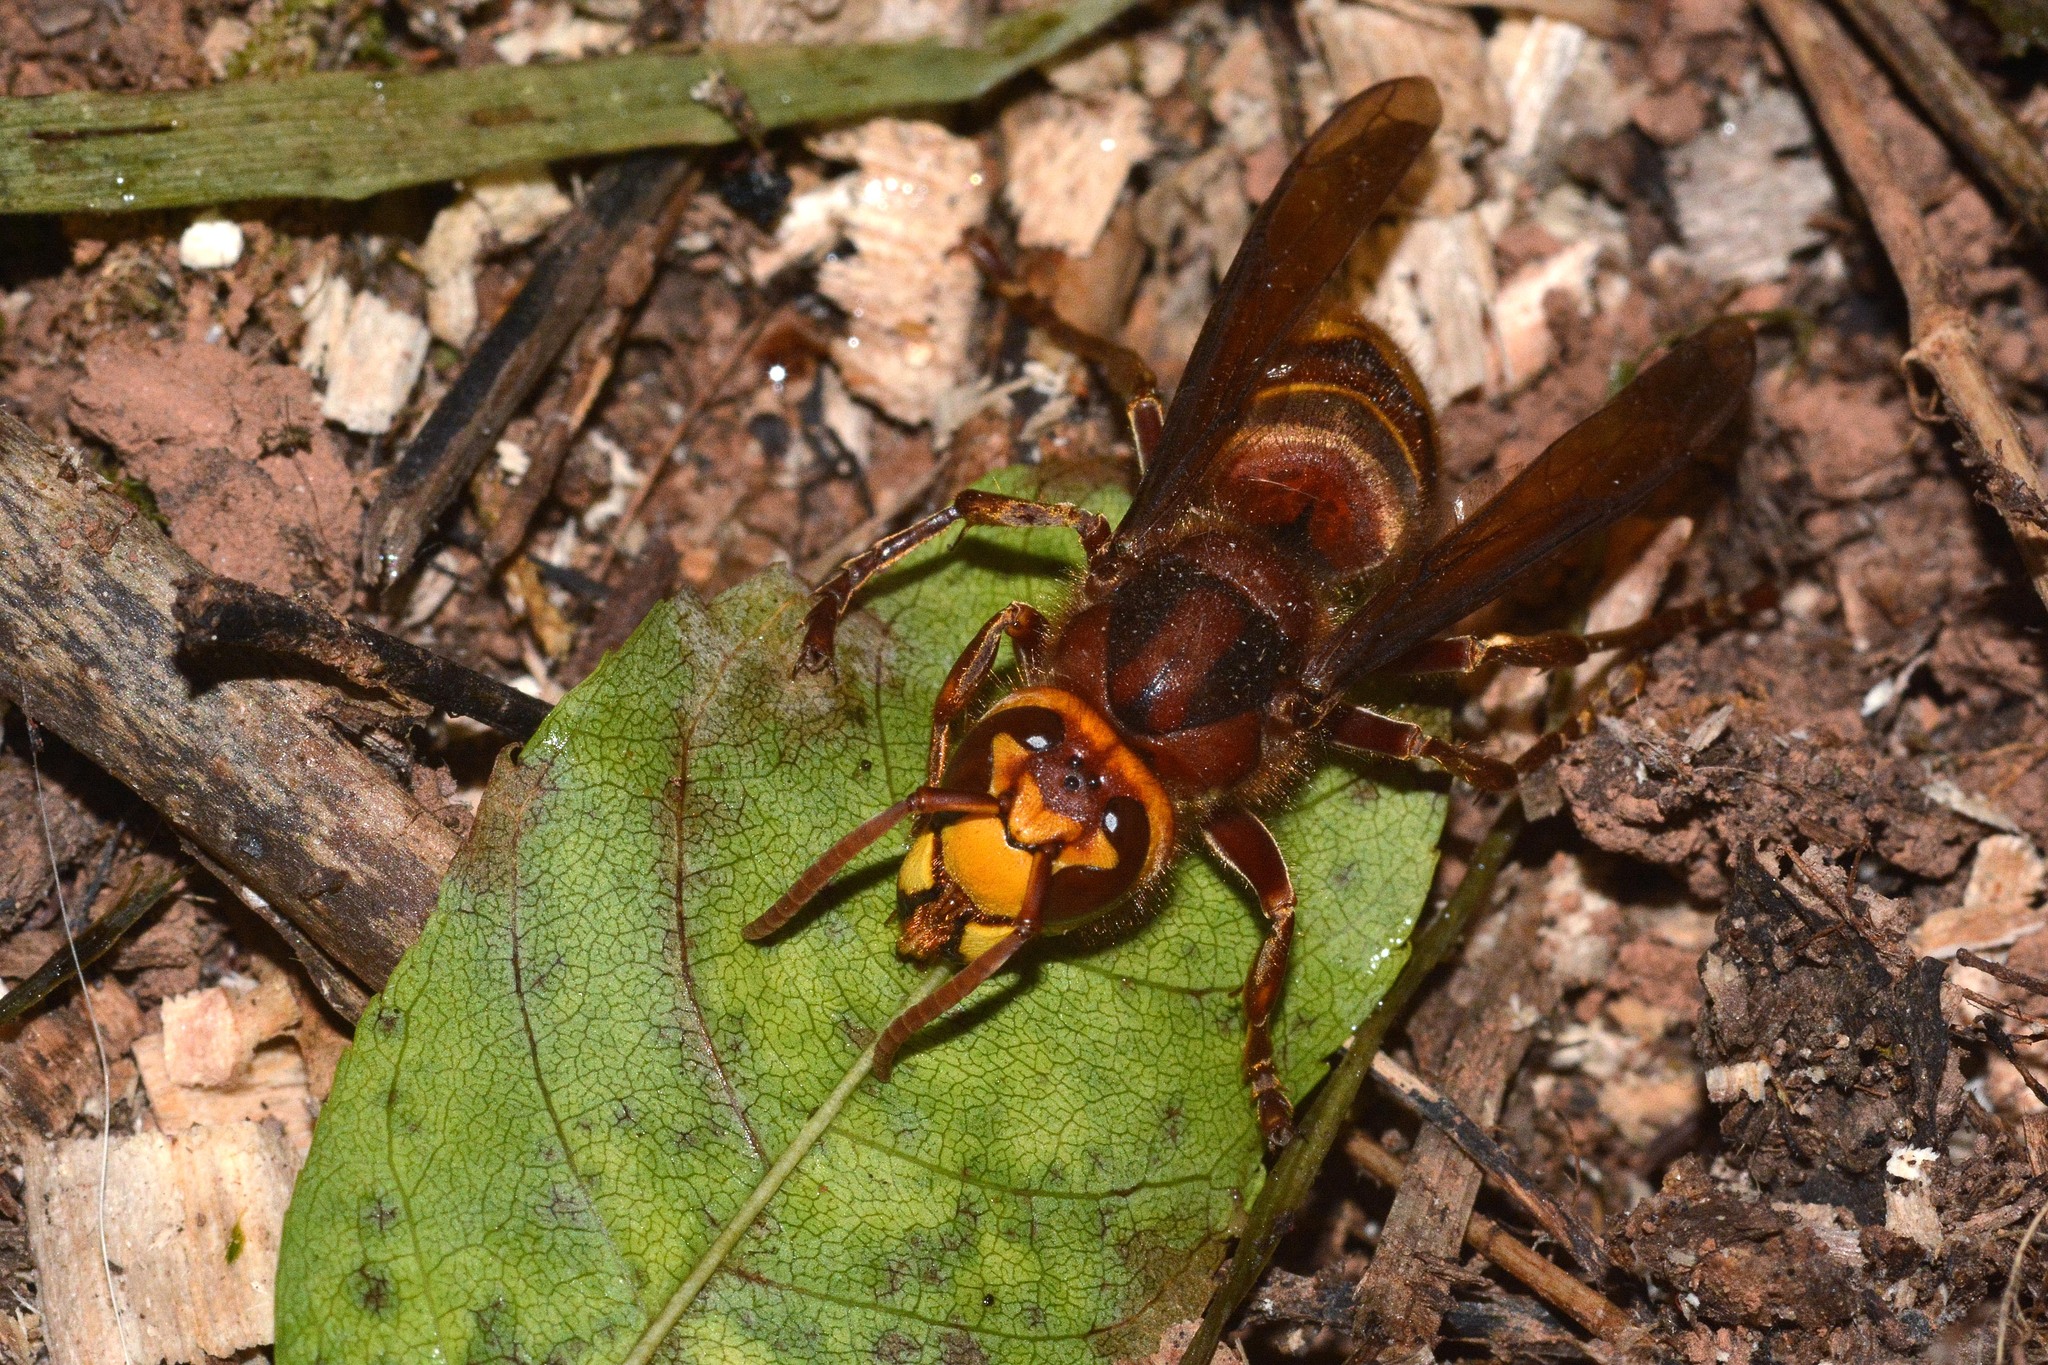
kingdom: Animalia
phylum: Arthropoda
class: Insecta
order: Hymenoptera
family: Vespidae
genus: Vespa
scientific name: Vespa crabro
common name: Hornet
